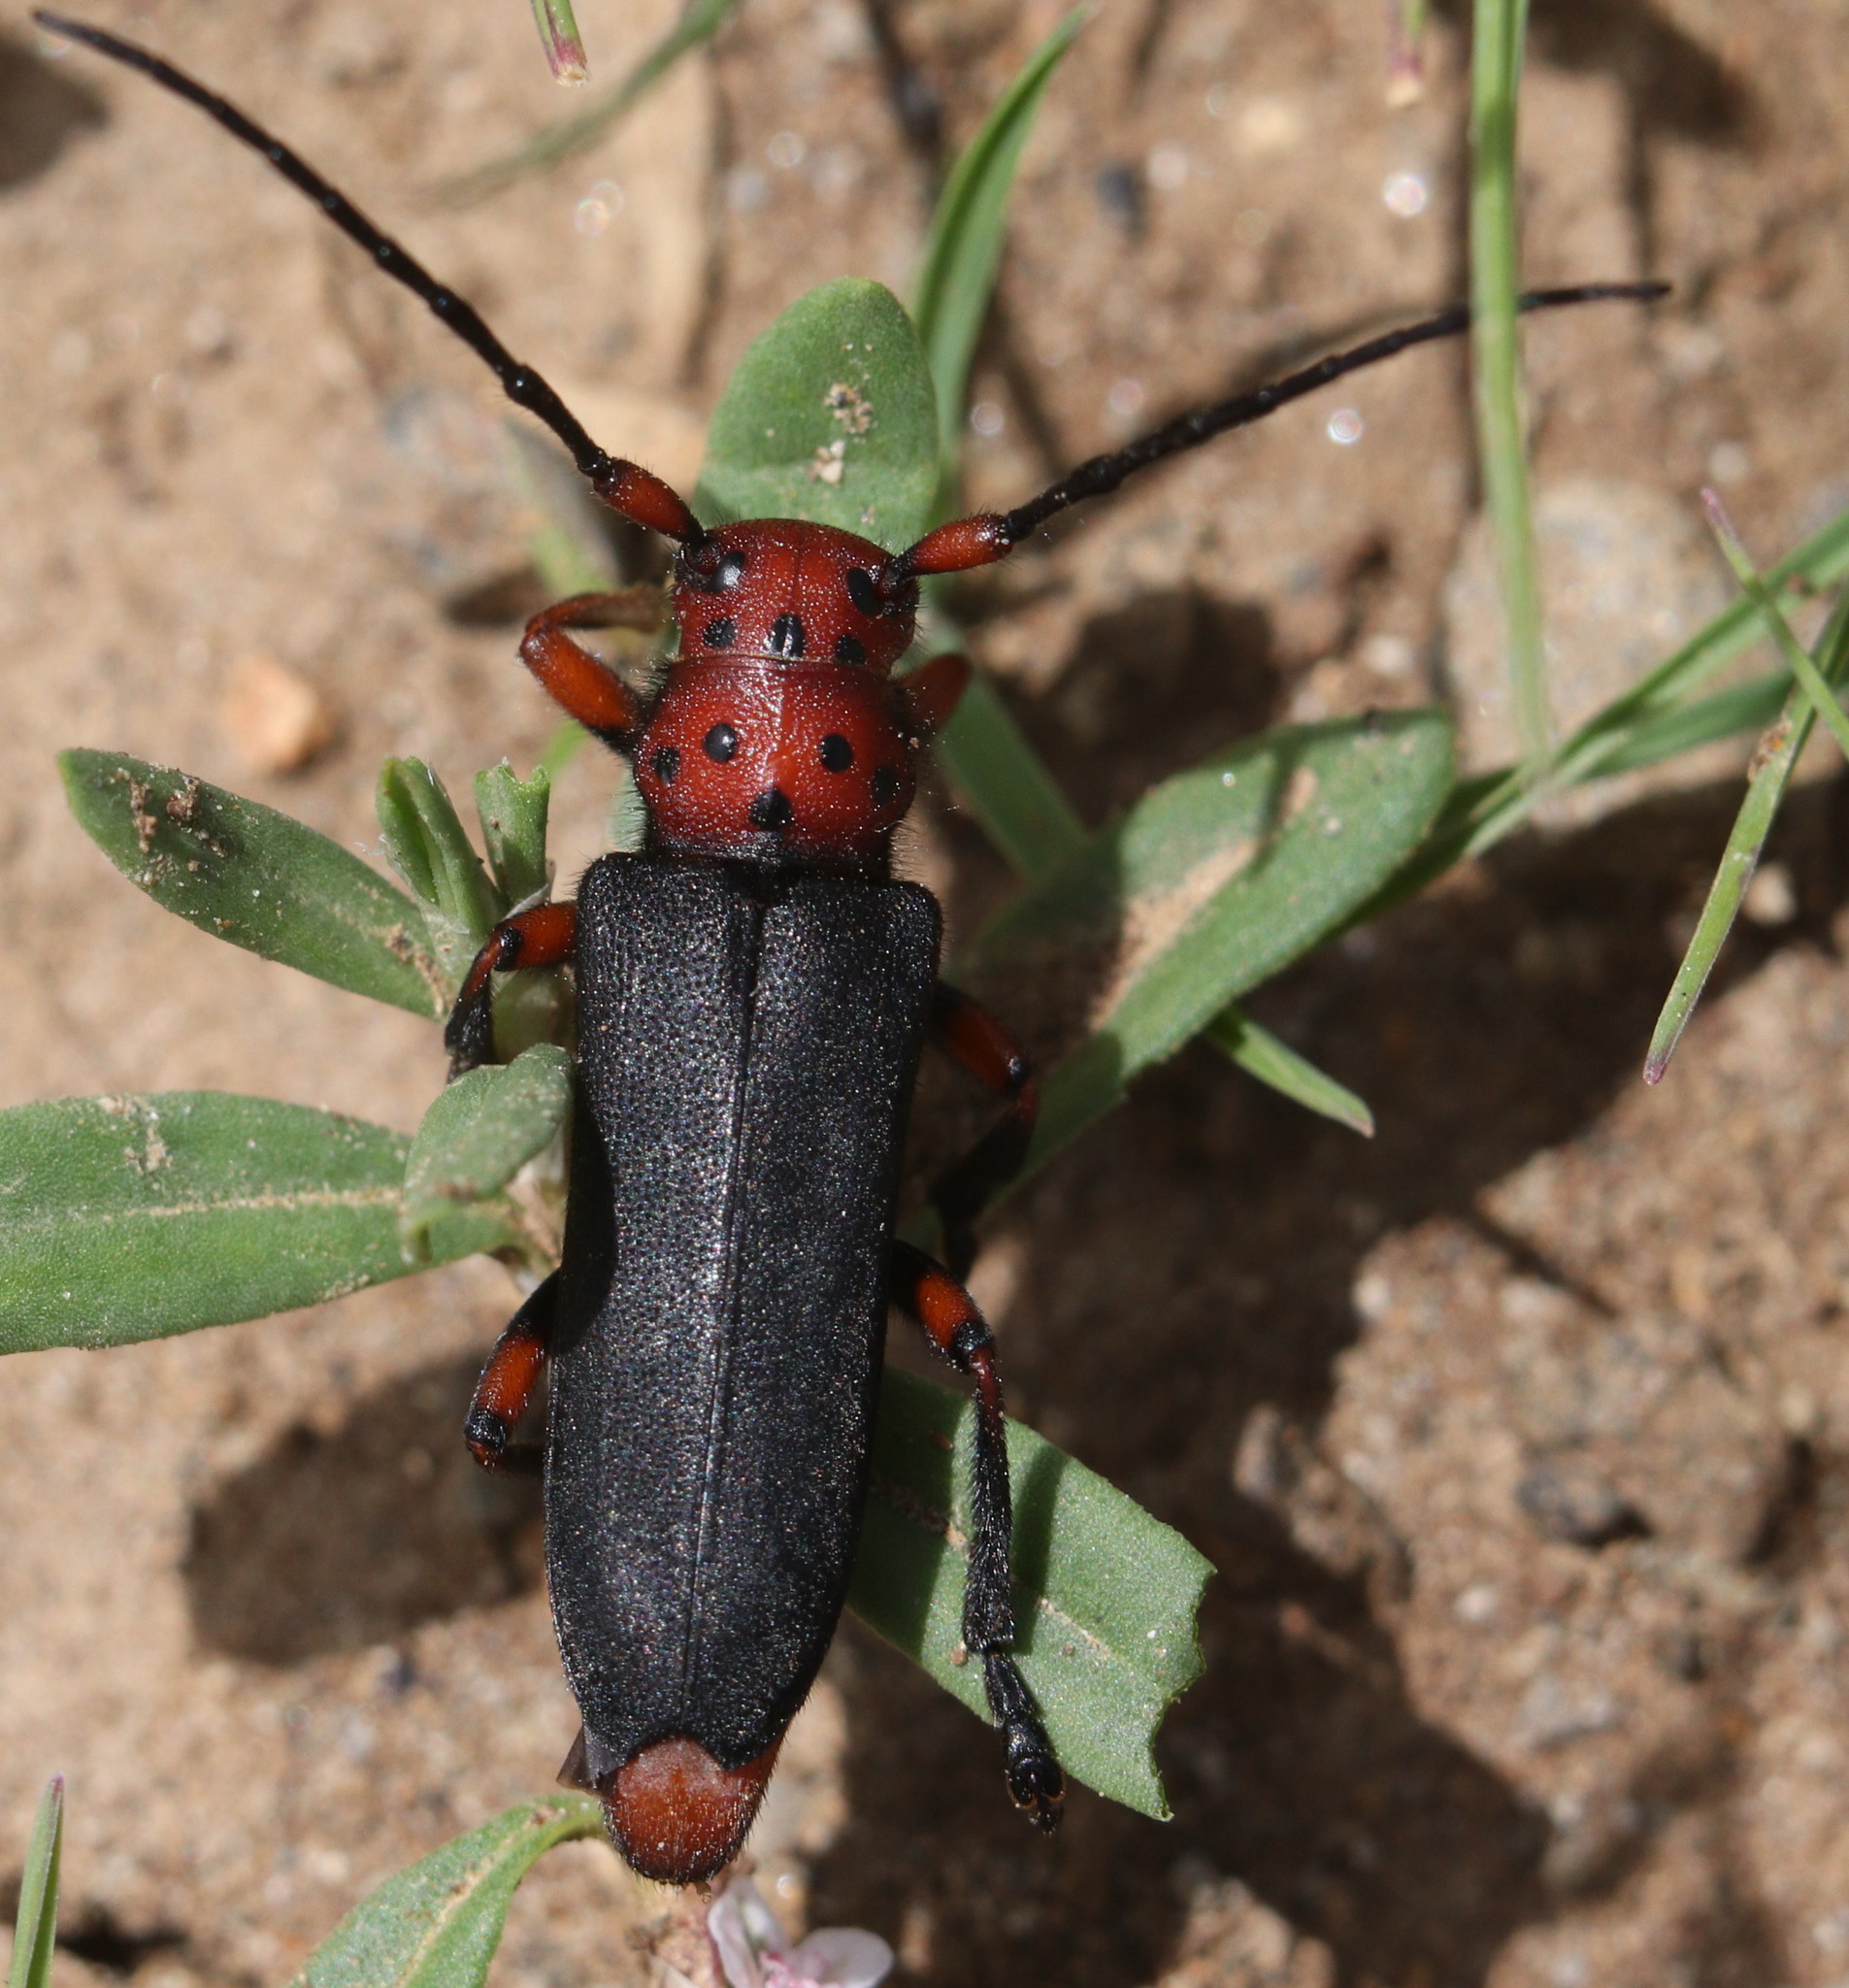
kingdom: Animalia
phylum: Arthropoda
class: Insecta
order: Coleoptera
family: Cerambycidae
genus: Phytoecia
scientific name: Phytoecia wachanrui
